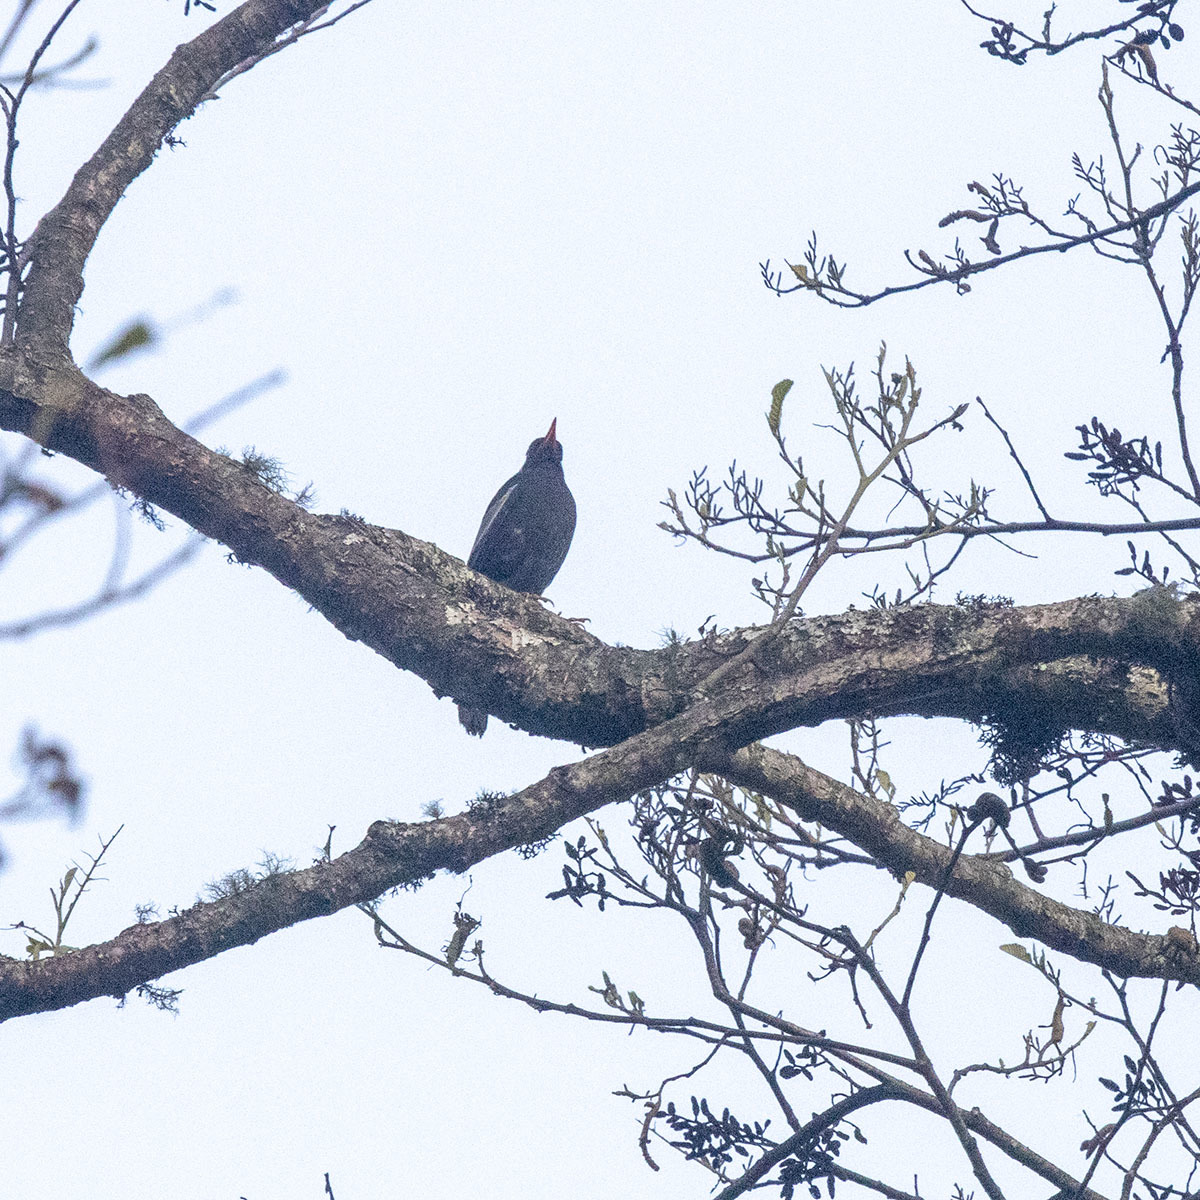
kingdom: Animalia
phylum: Chordata
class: Aves
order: Passeriformes
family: Turdidae
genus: Turdus
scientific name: Turdus boulboul
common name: Grey-winged blackbird
